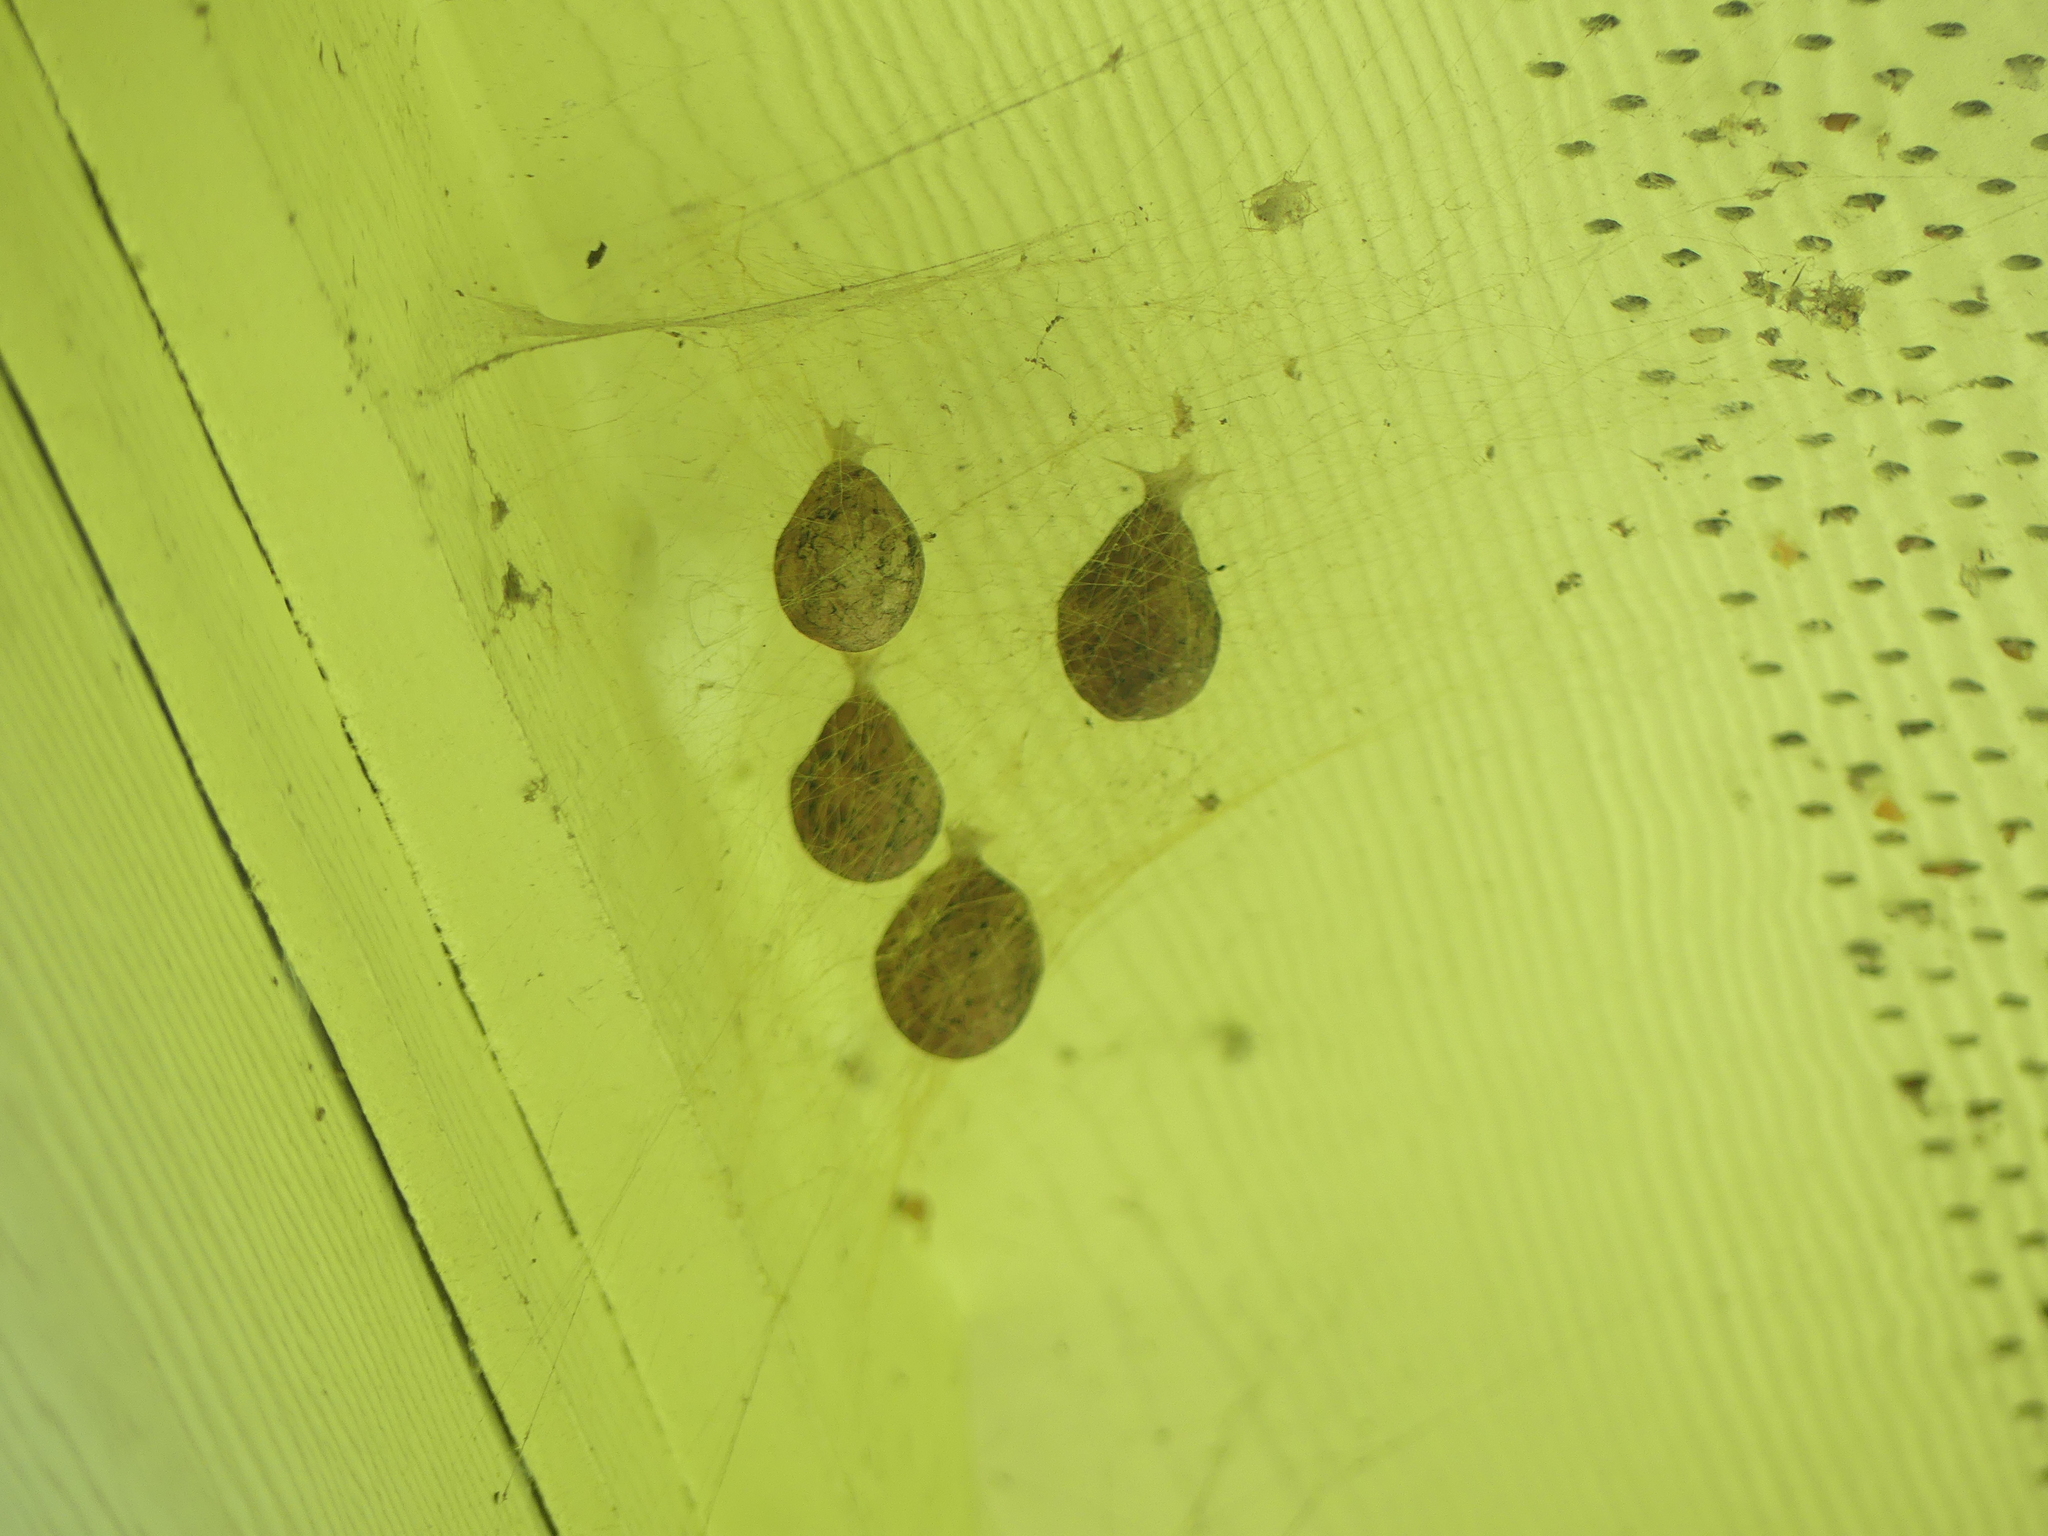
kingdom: Animalia
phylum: Arthropoda
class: Arachnida
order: Araneae
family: Araneidae
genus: Argiope
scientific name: Argiope aurantia
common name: Orb weavers
